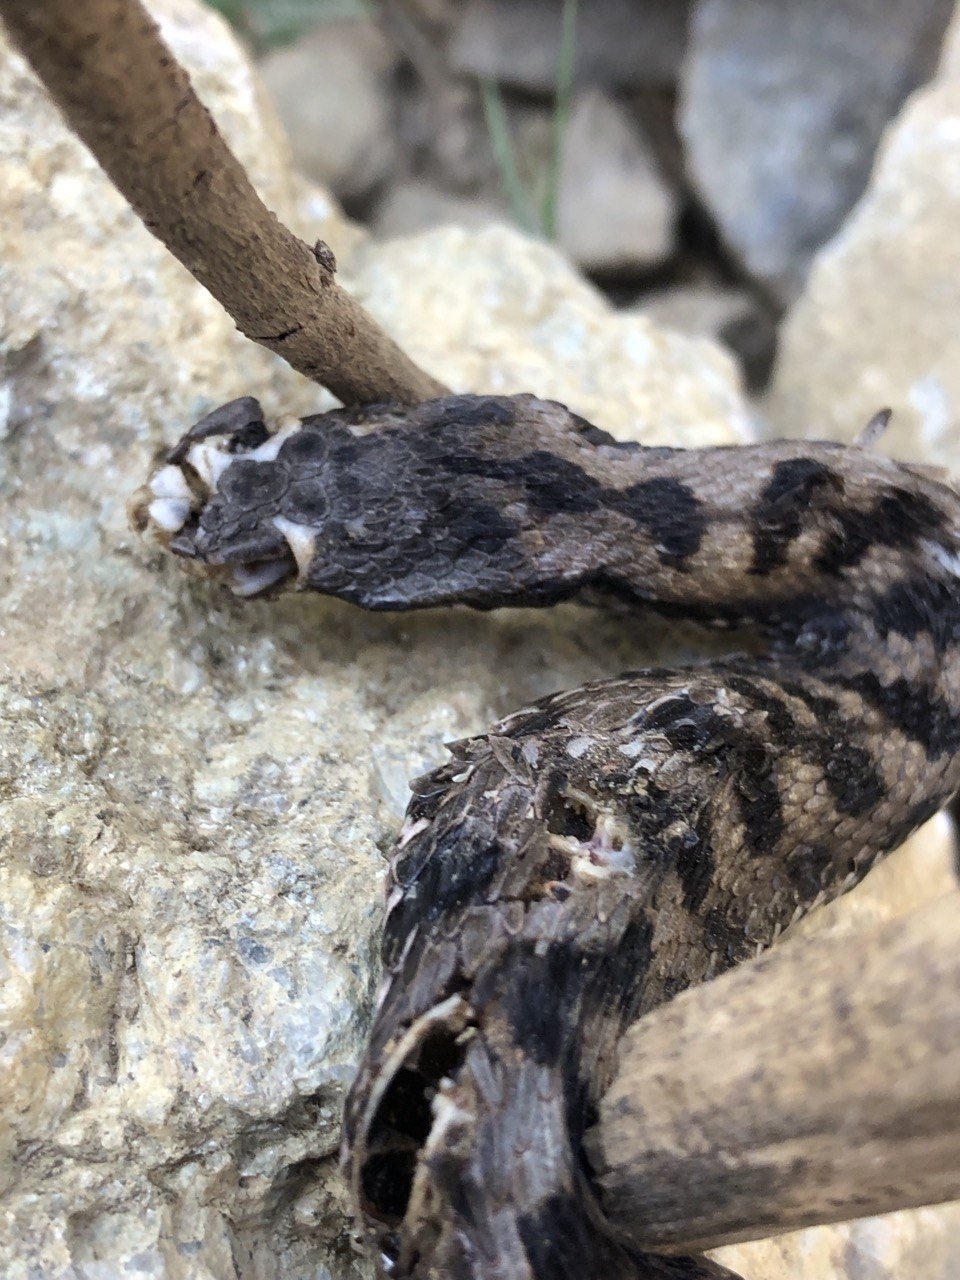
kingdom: Animalia
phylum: Chordata
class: Squamata
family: Viperidae
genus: Vipera
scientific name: Vipera aspis
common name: Asp viper
